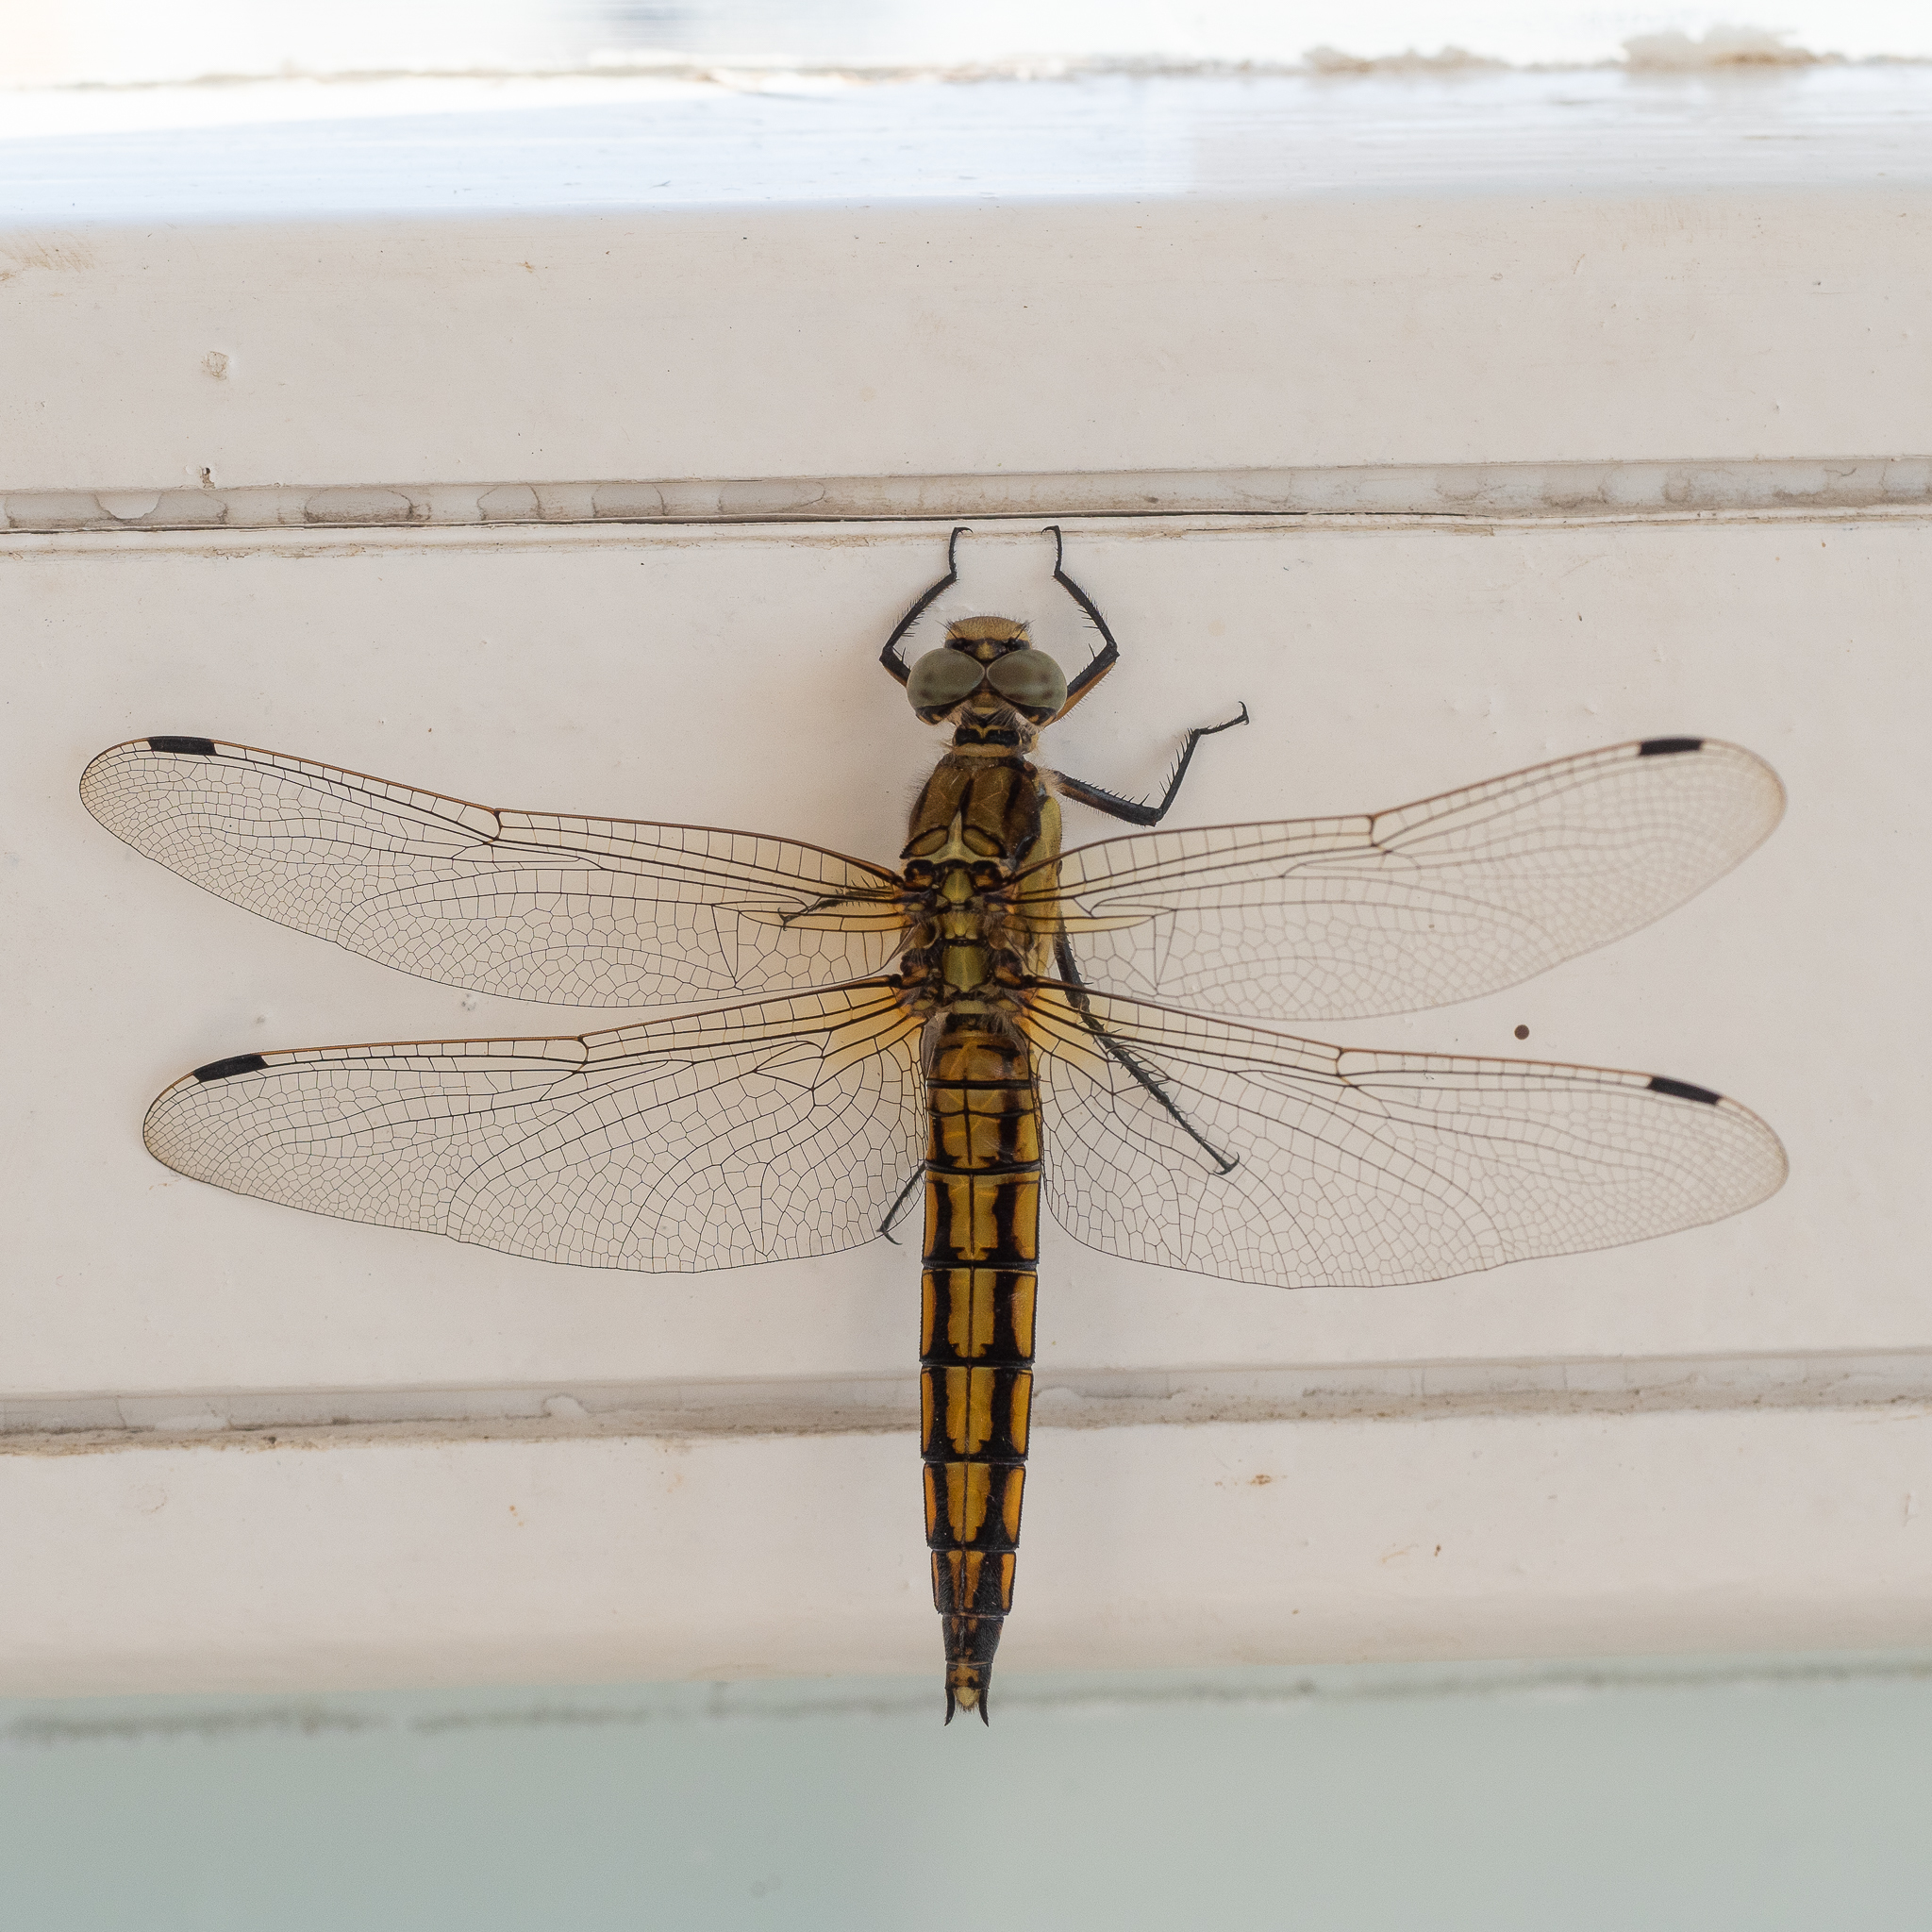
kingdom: Animalia
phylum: Arthropoda
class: Insecta
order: Odonata
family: Libellulidae
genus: Orthetrum
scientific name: Orthetrum cancellatum
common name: Black-tailed skimmer
